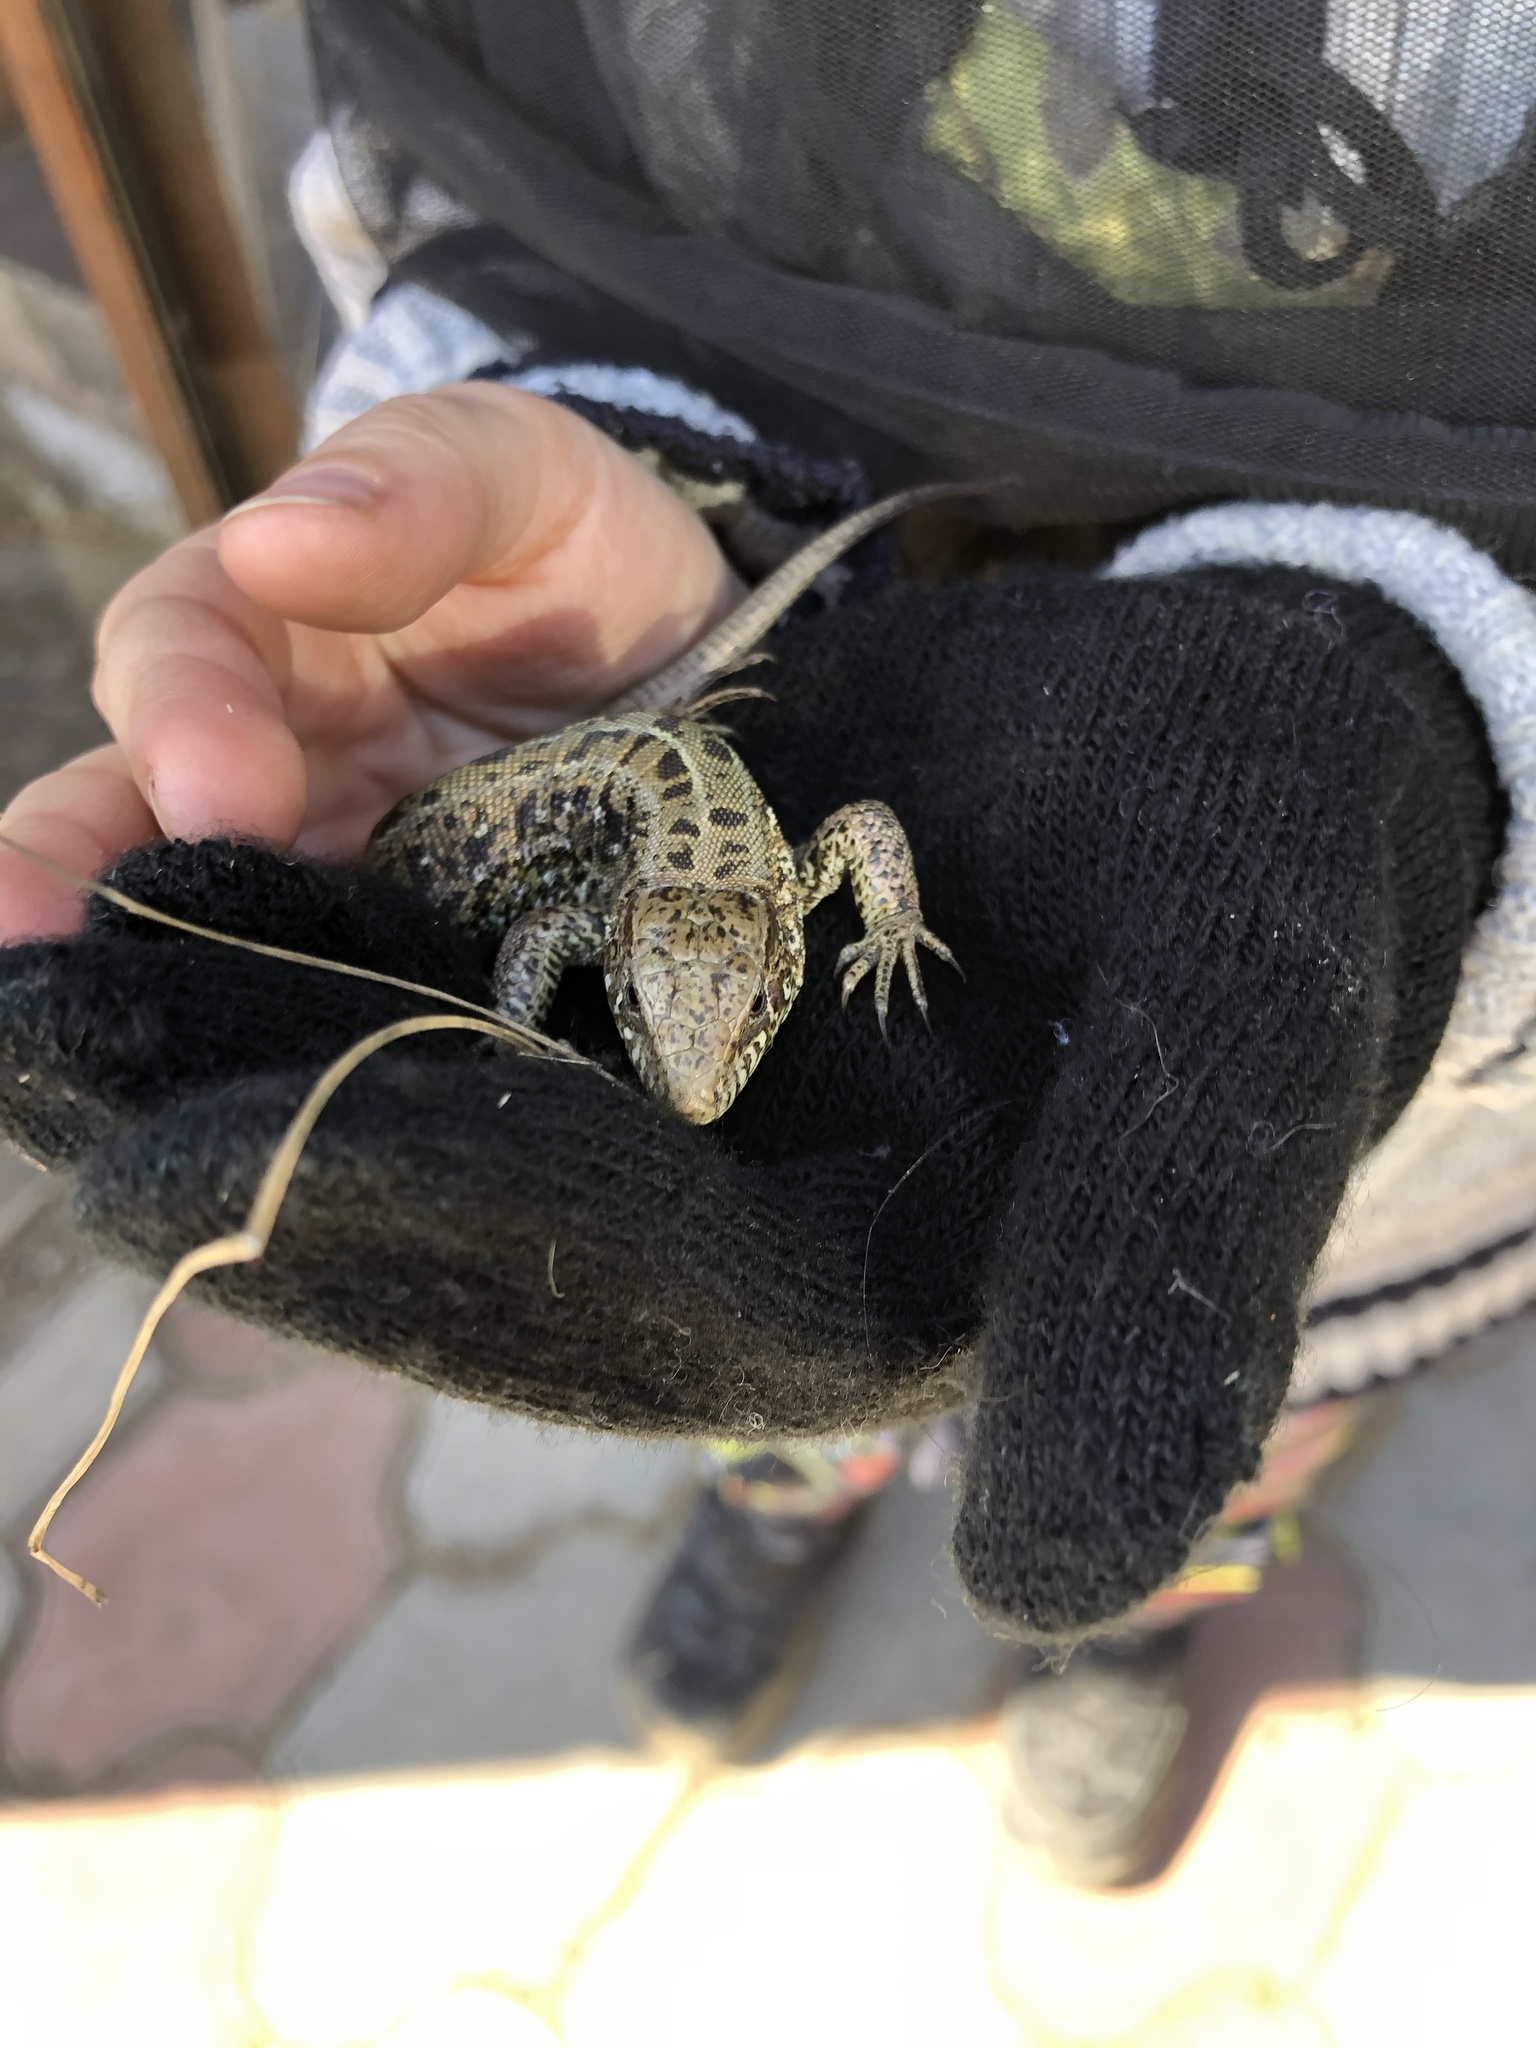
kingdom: Animalia
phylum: Chordata
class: Squamata
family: Lacertidae
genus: Lacerta
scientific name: Lacerta agilis
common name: Sand lizard
